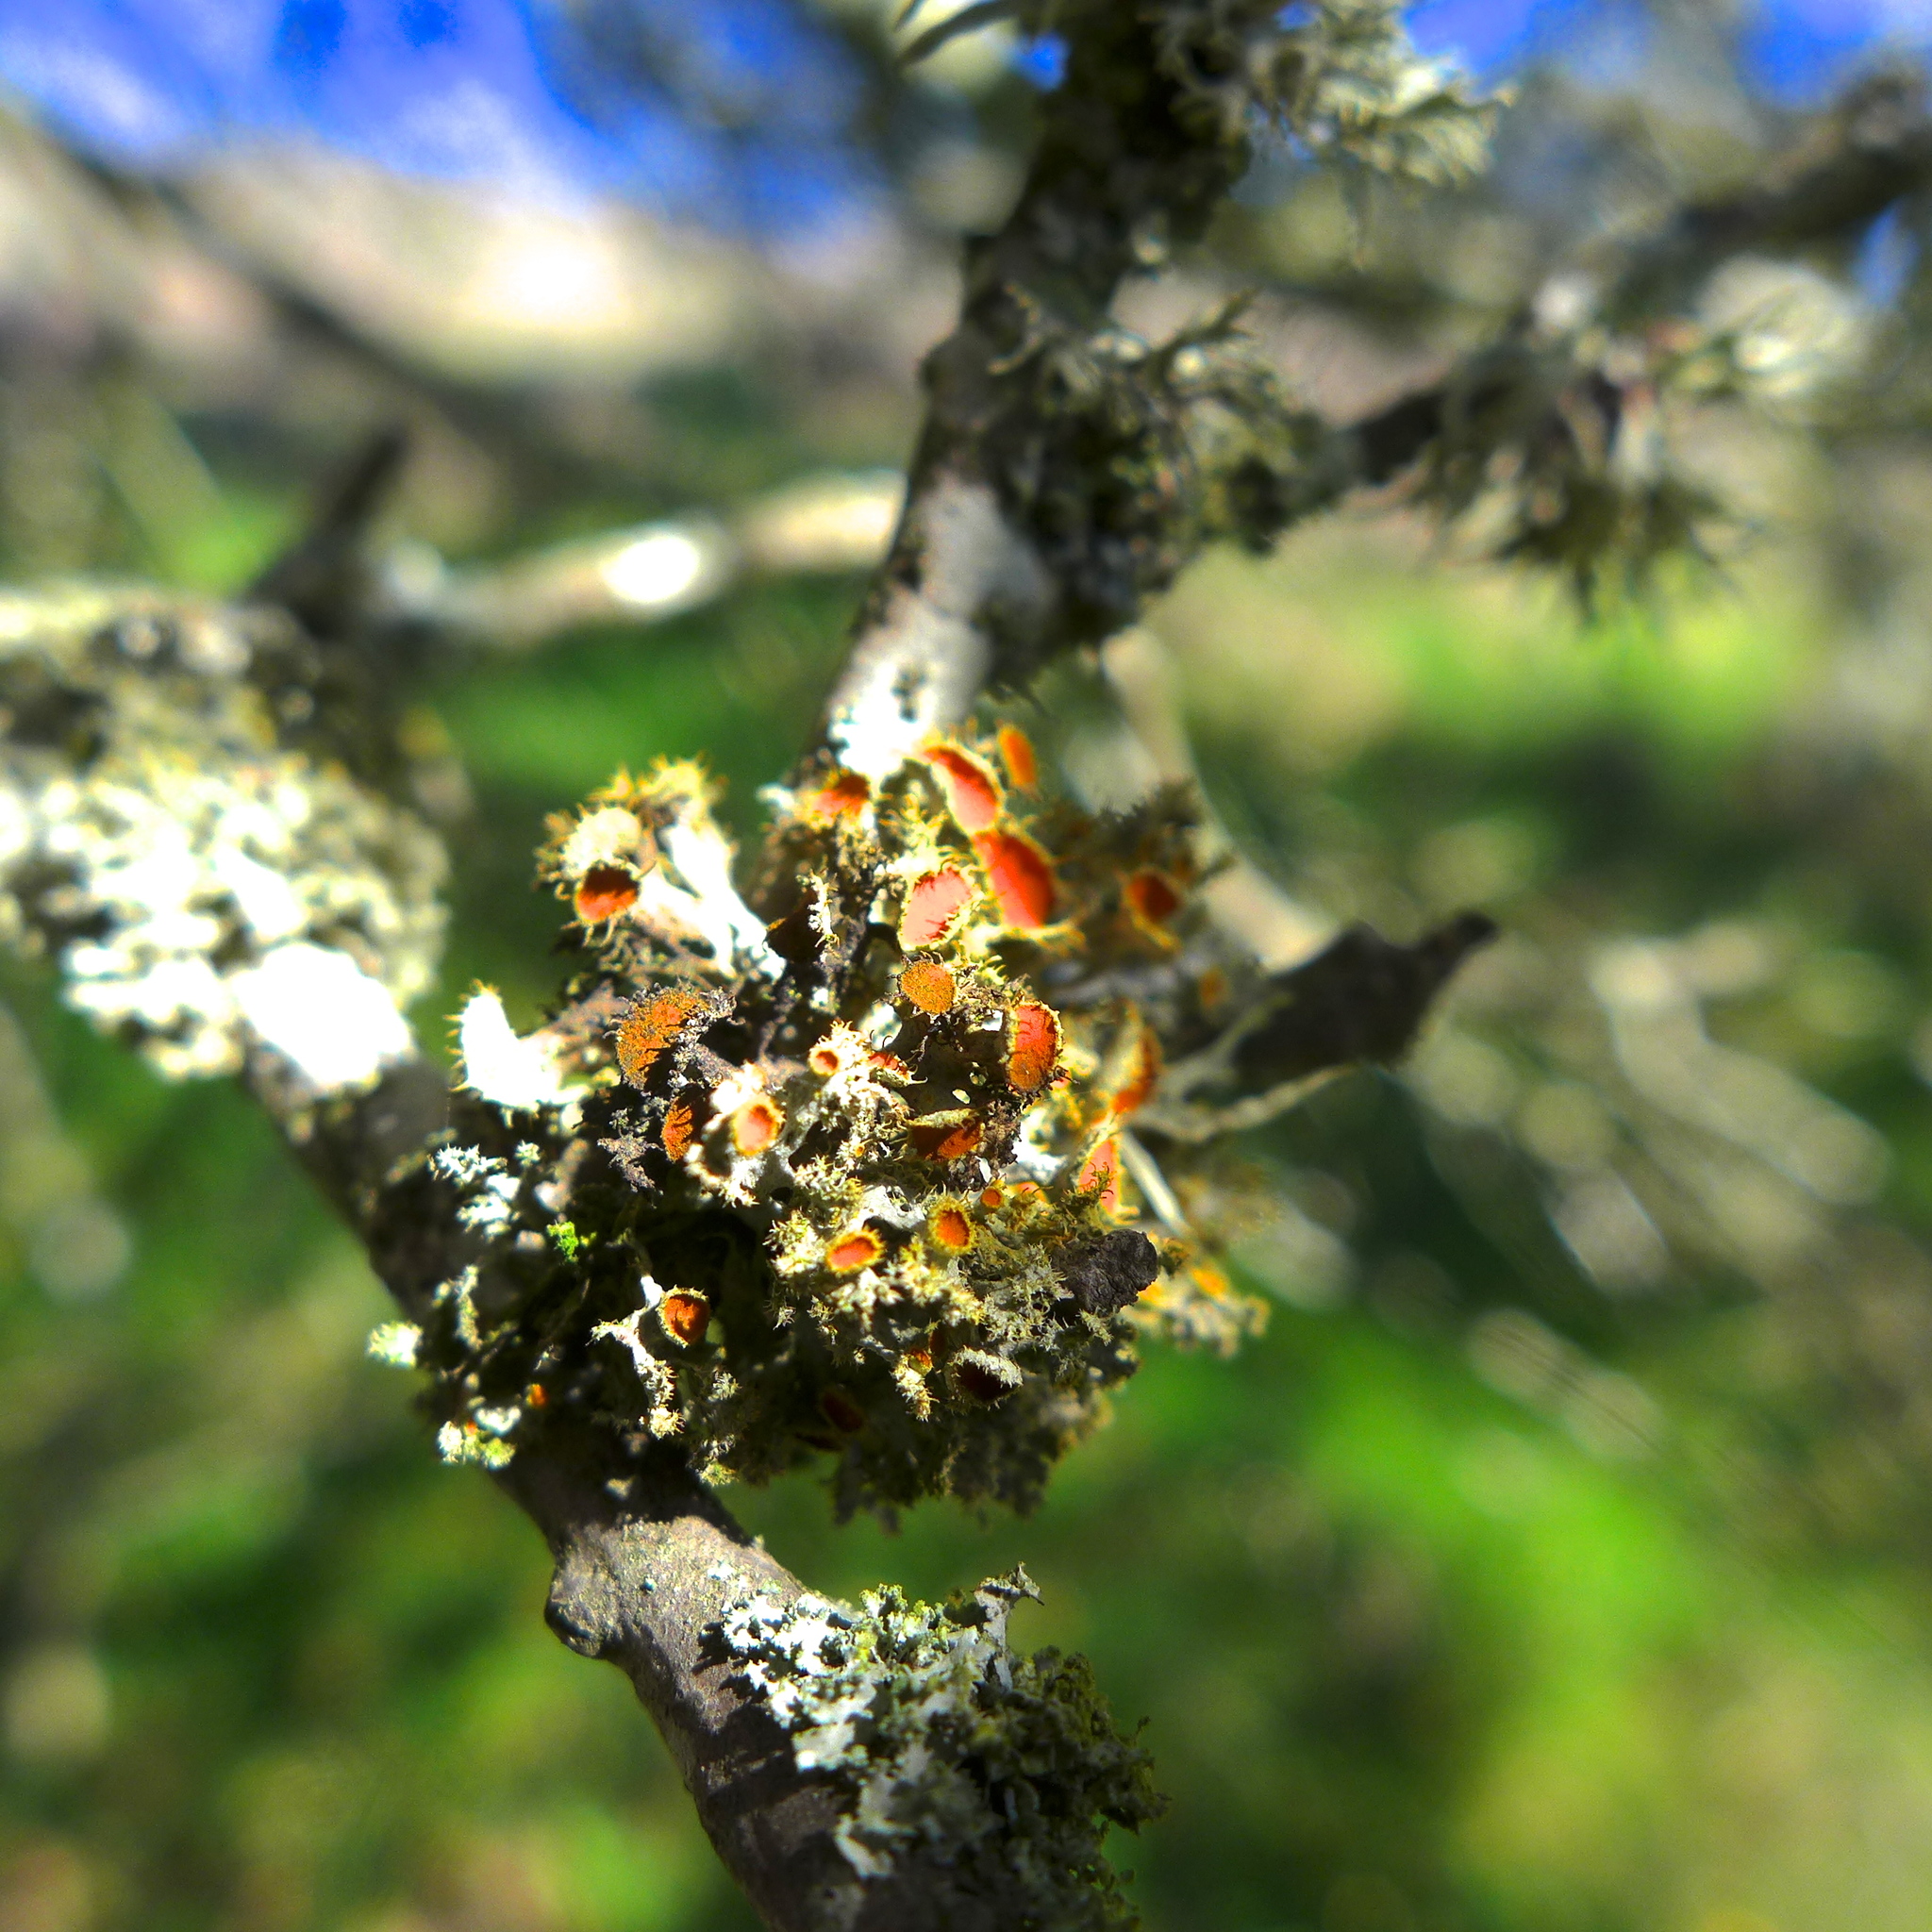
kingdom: Fungi
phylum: Ascomycota
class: Lecanoromycetes
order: Teloschistales
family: Teloschistaceae
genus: Niorma
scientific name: Niorma chrysophthalma
